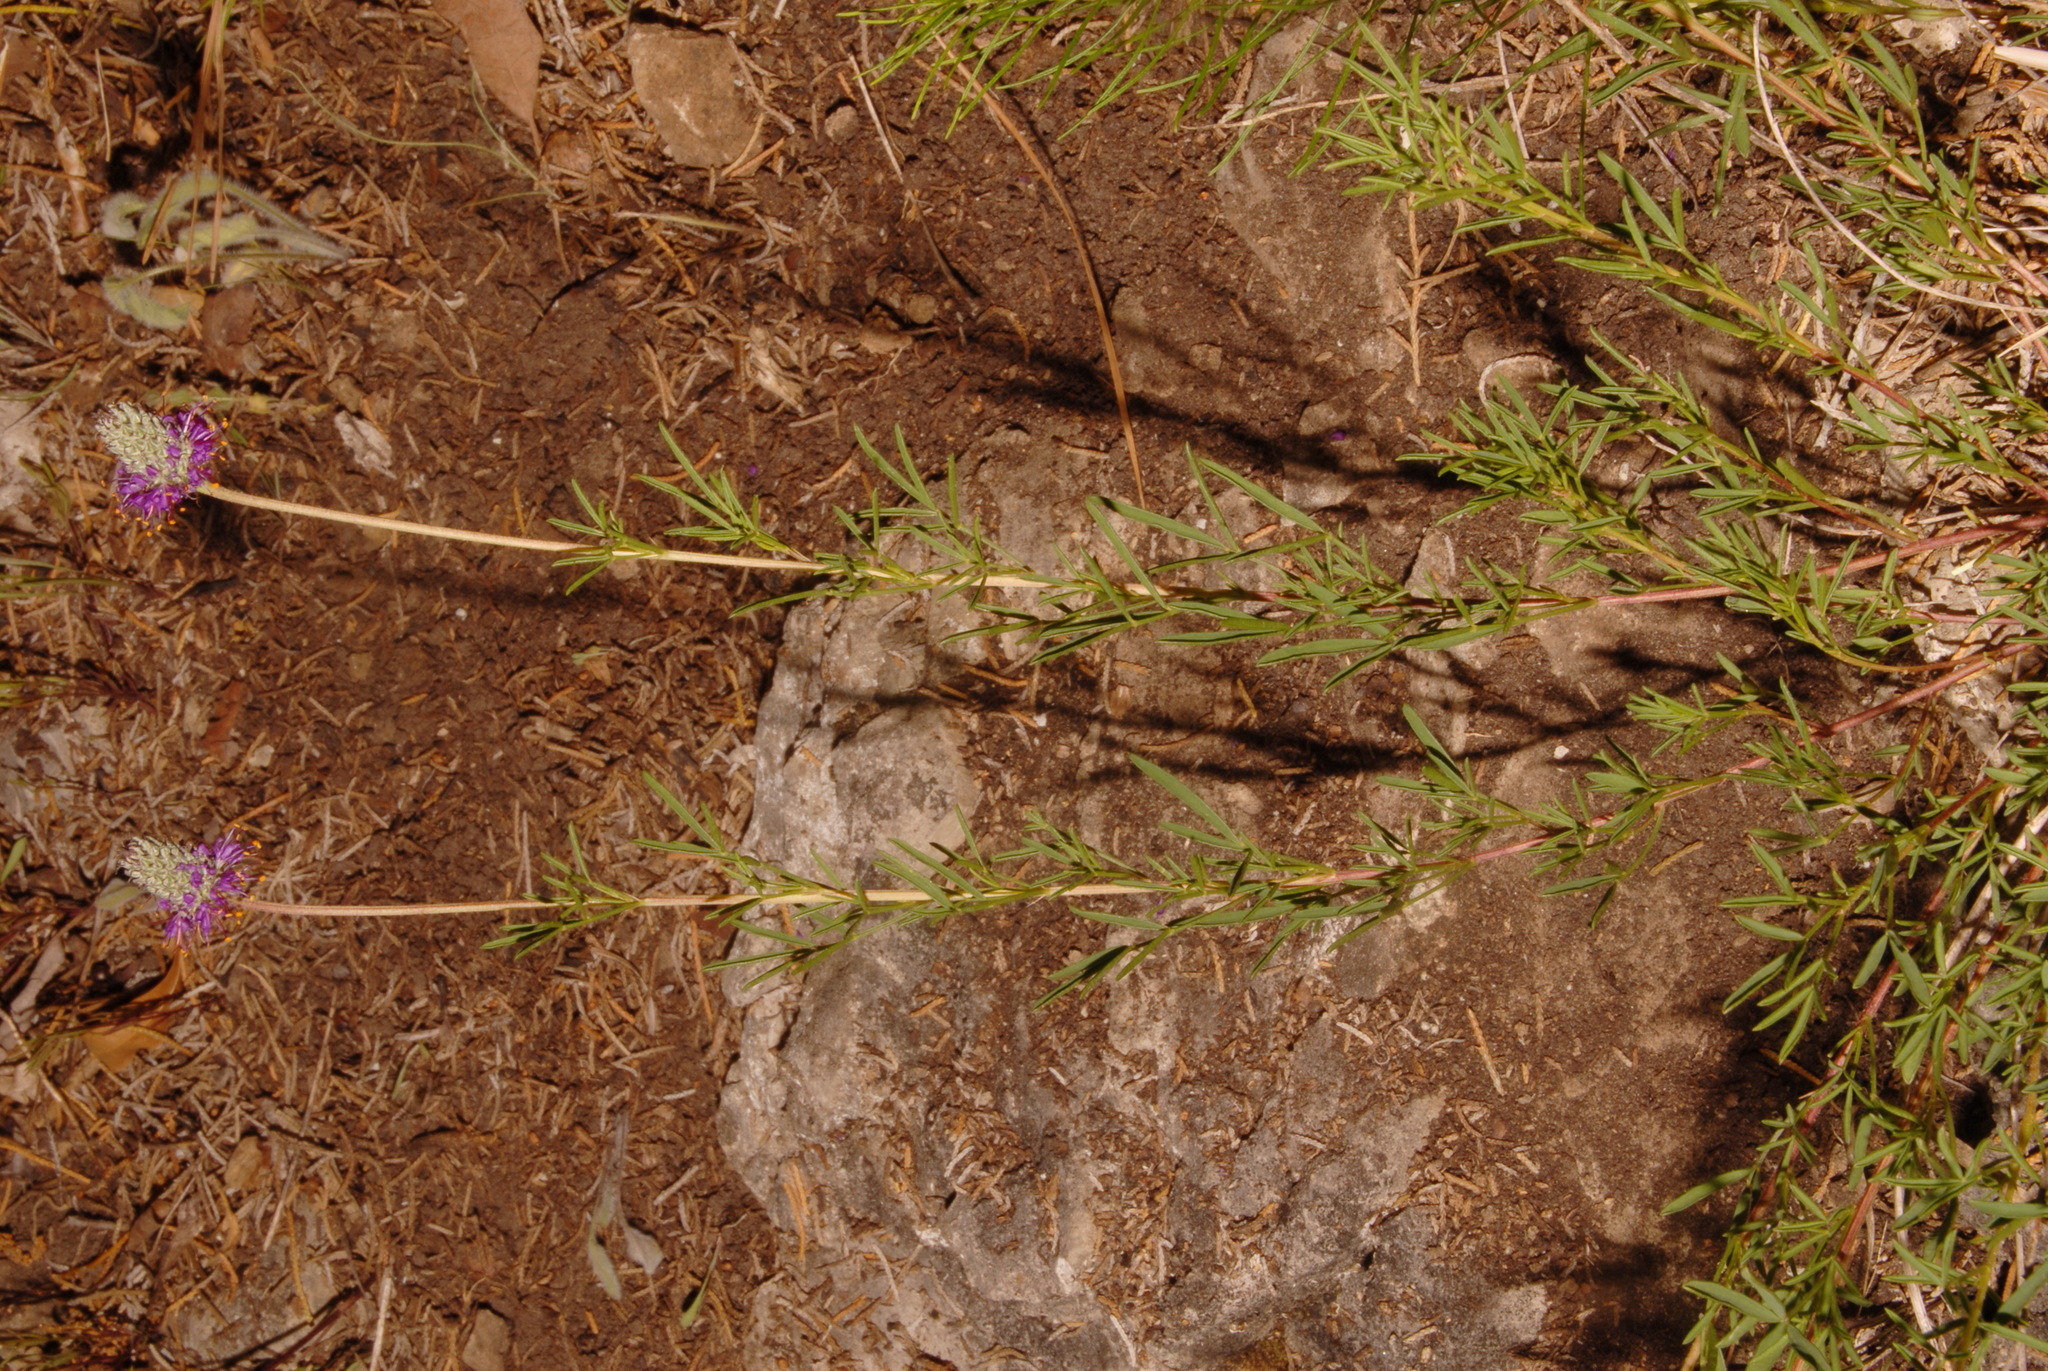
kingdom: Plantae
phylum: Tracheophyta
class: Magnoliopsida
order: Fabales
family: Fabaceae
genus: Dalea
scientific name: Dalea cahaba
